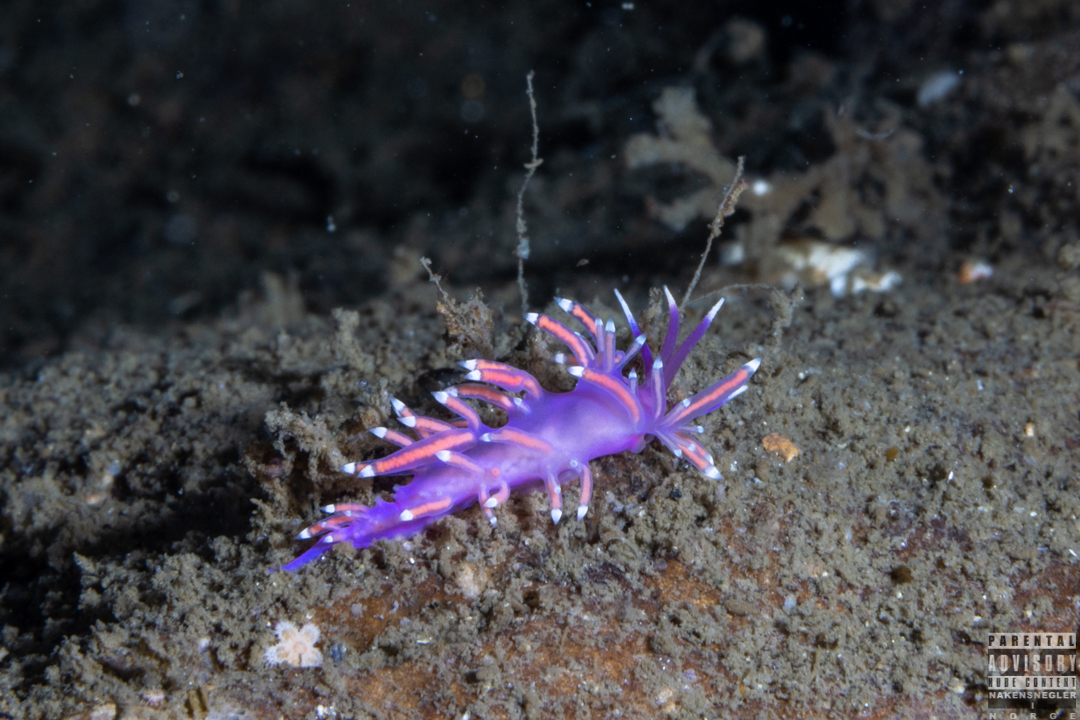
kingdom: Animalia
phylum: Mollusca
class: Gastropoda
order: Nudibranchia
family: Flabellinidae
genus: Edmundsella
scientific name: Edmundsella pedata
